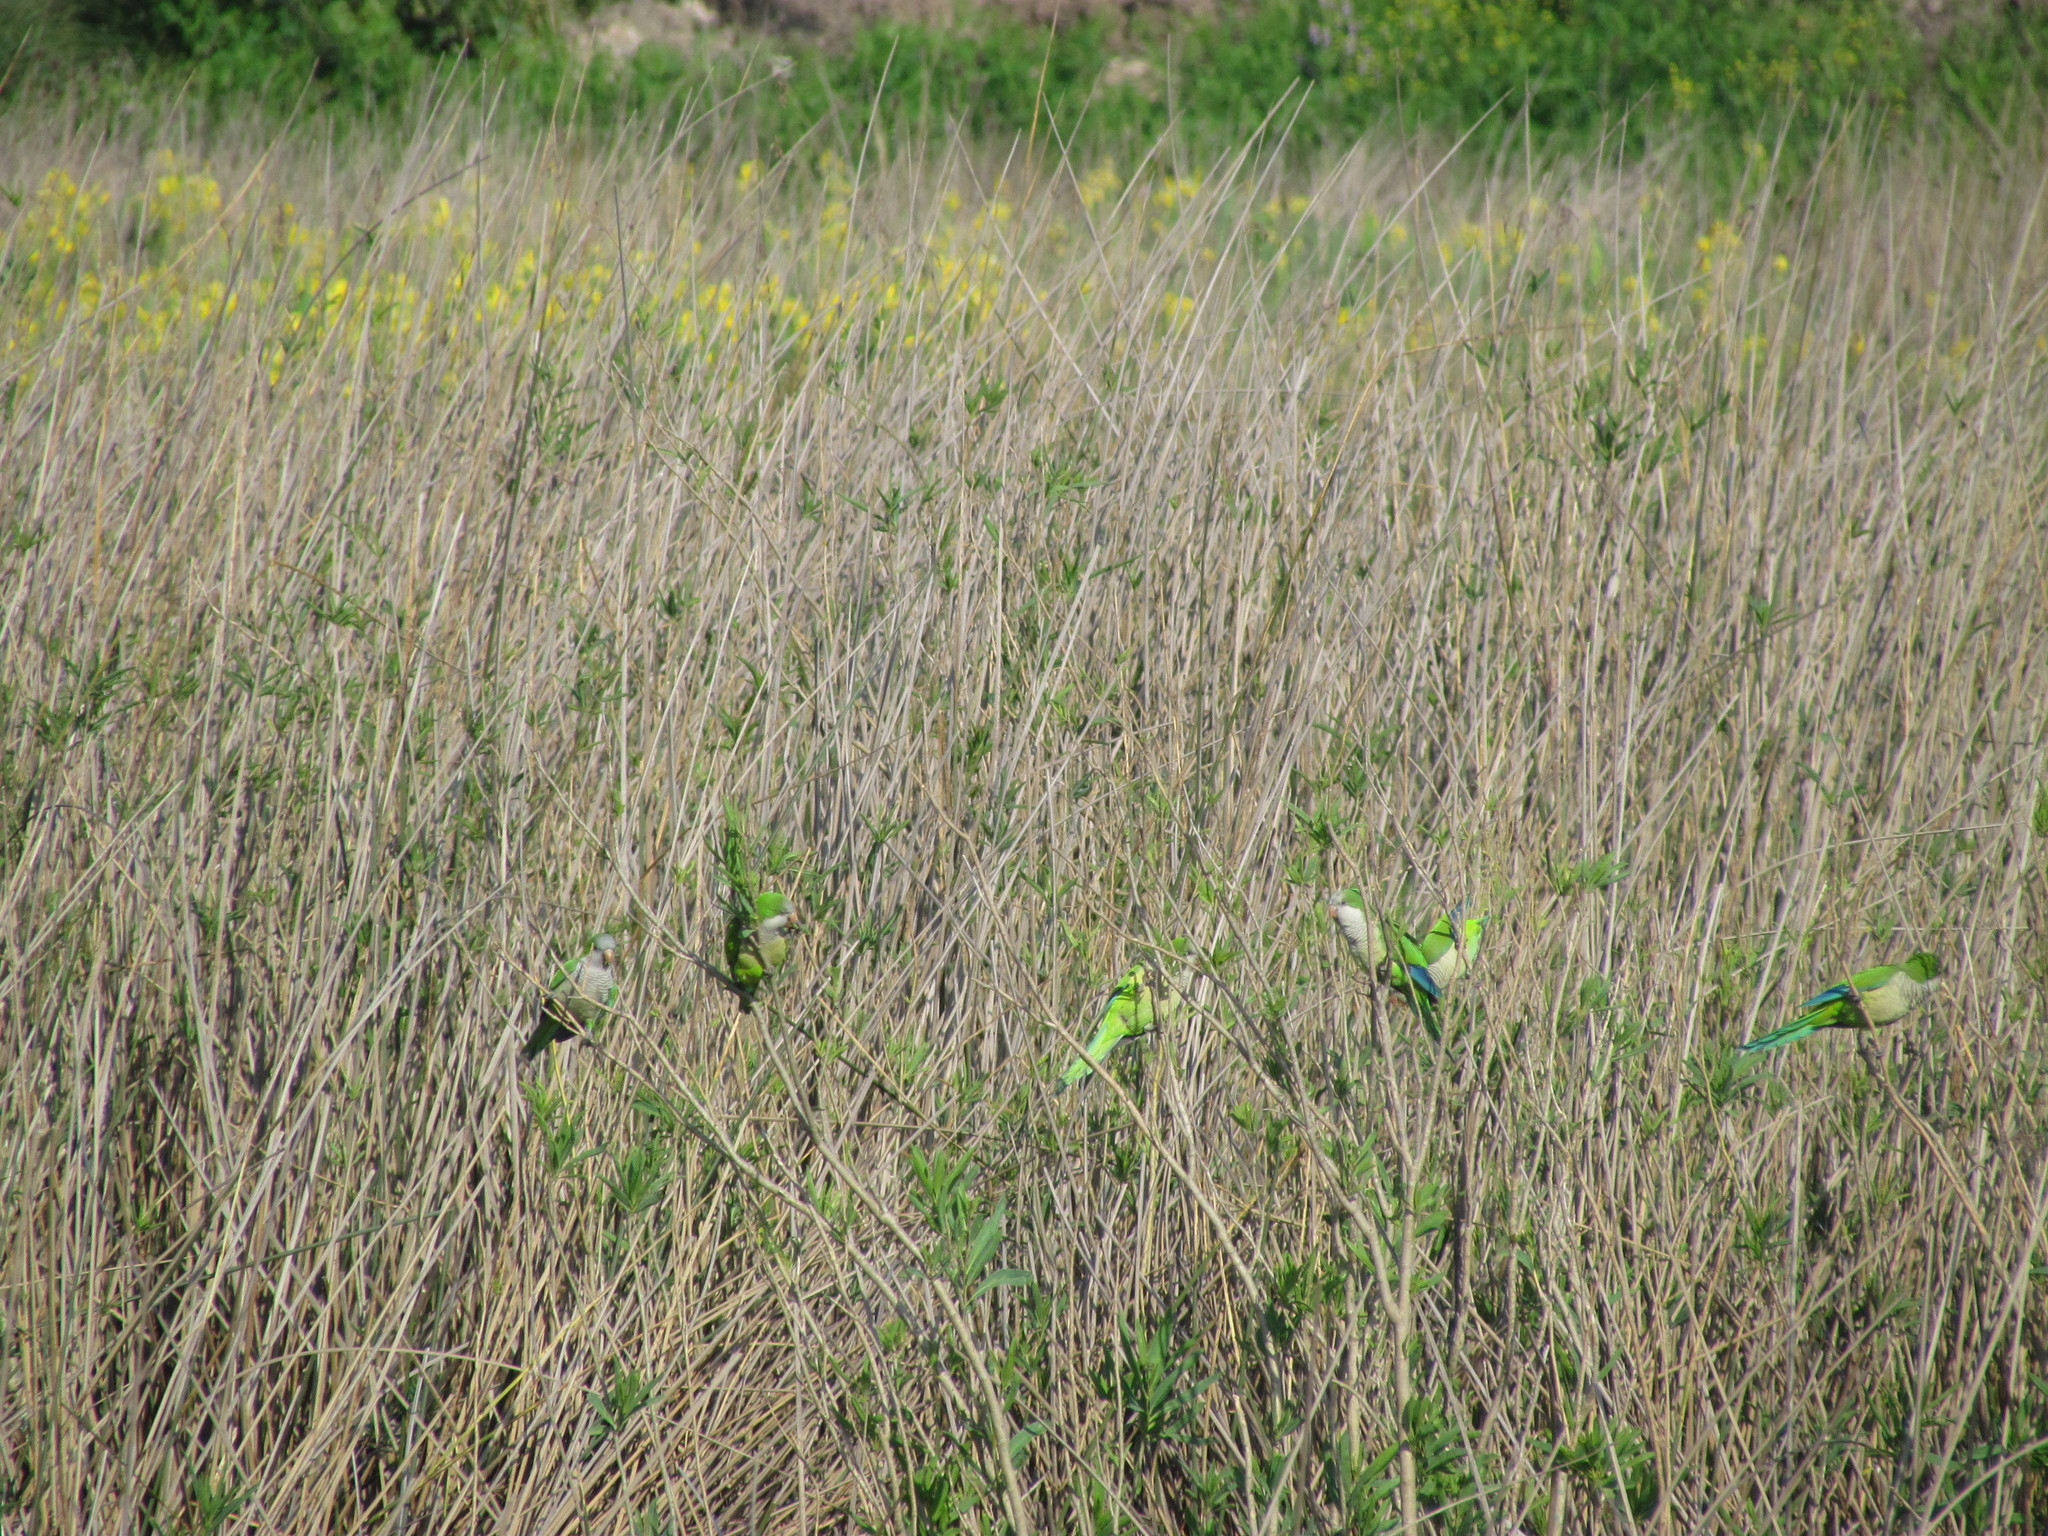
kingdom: Animalia
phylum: Chordata
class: Aves
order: Psittaciformes
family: Psittacidae
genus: Myiopsitta
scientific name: Myiopsitta monachus
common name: Monk parakeet
